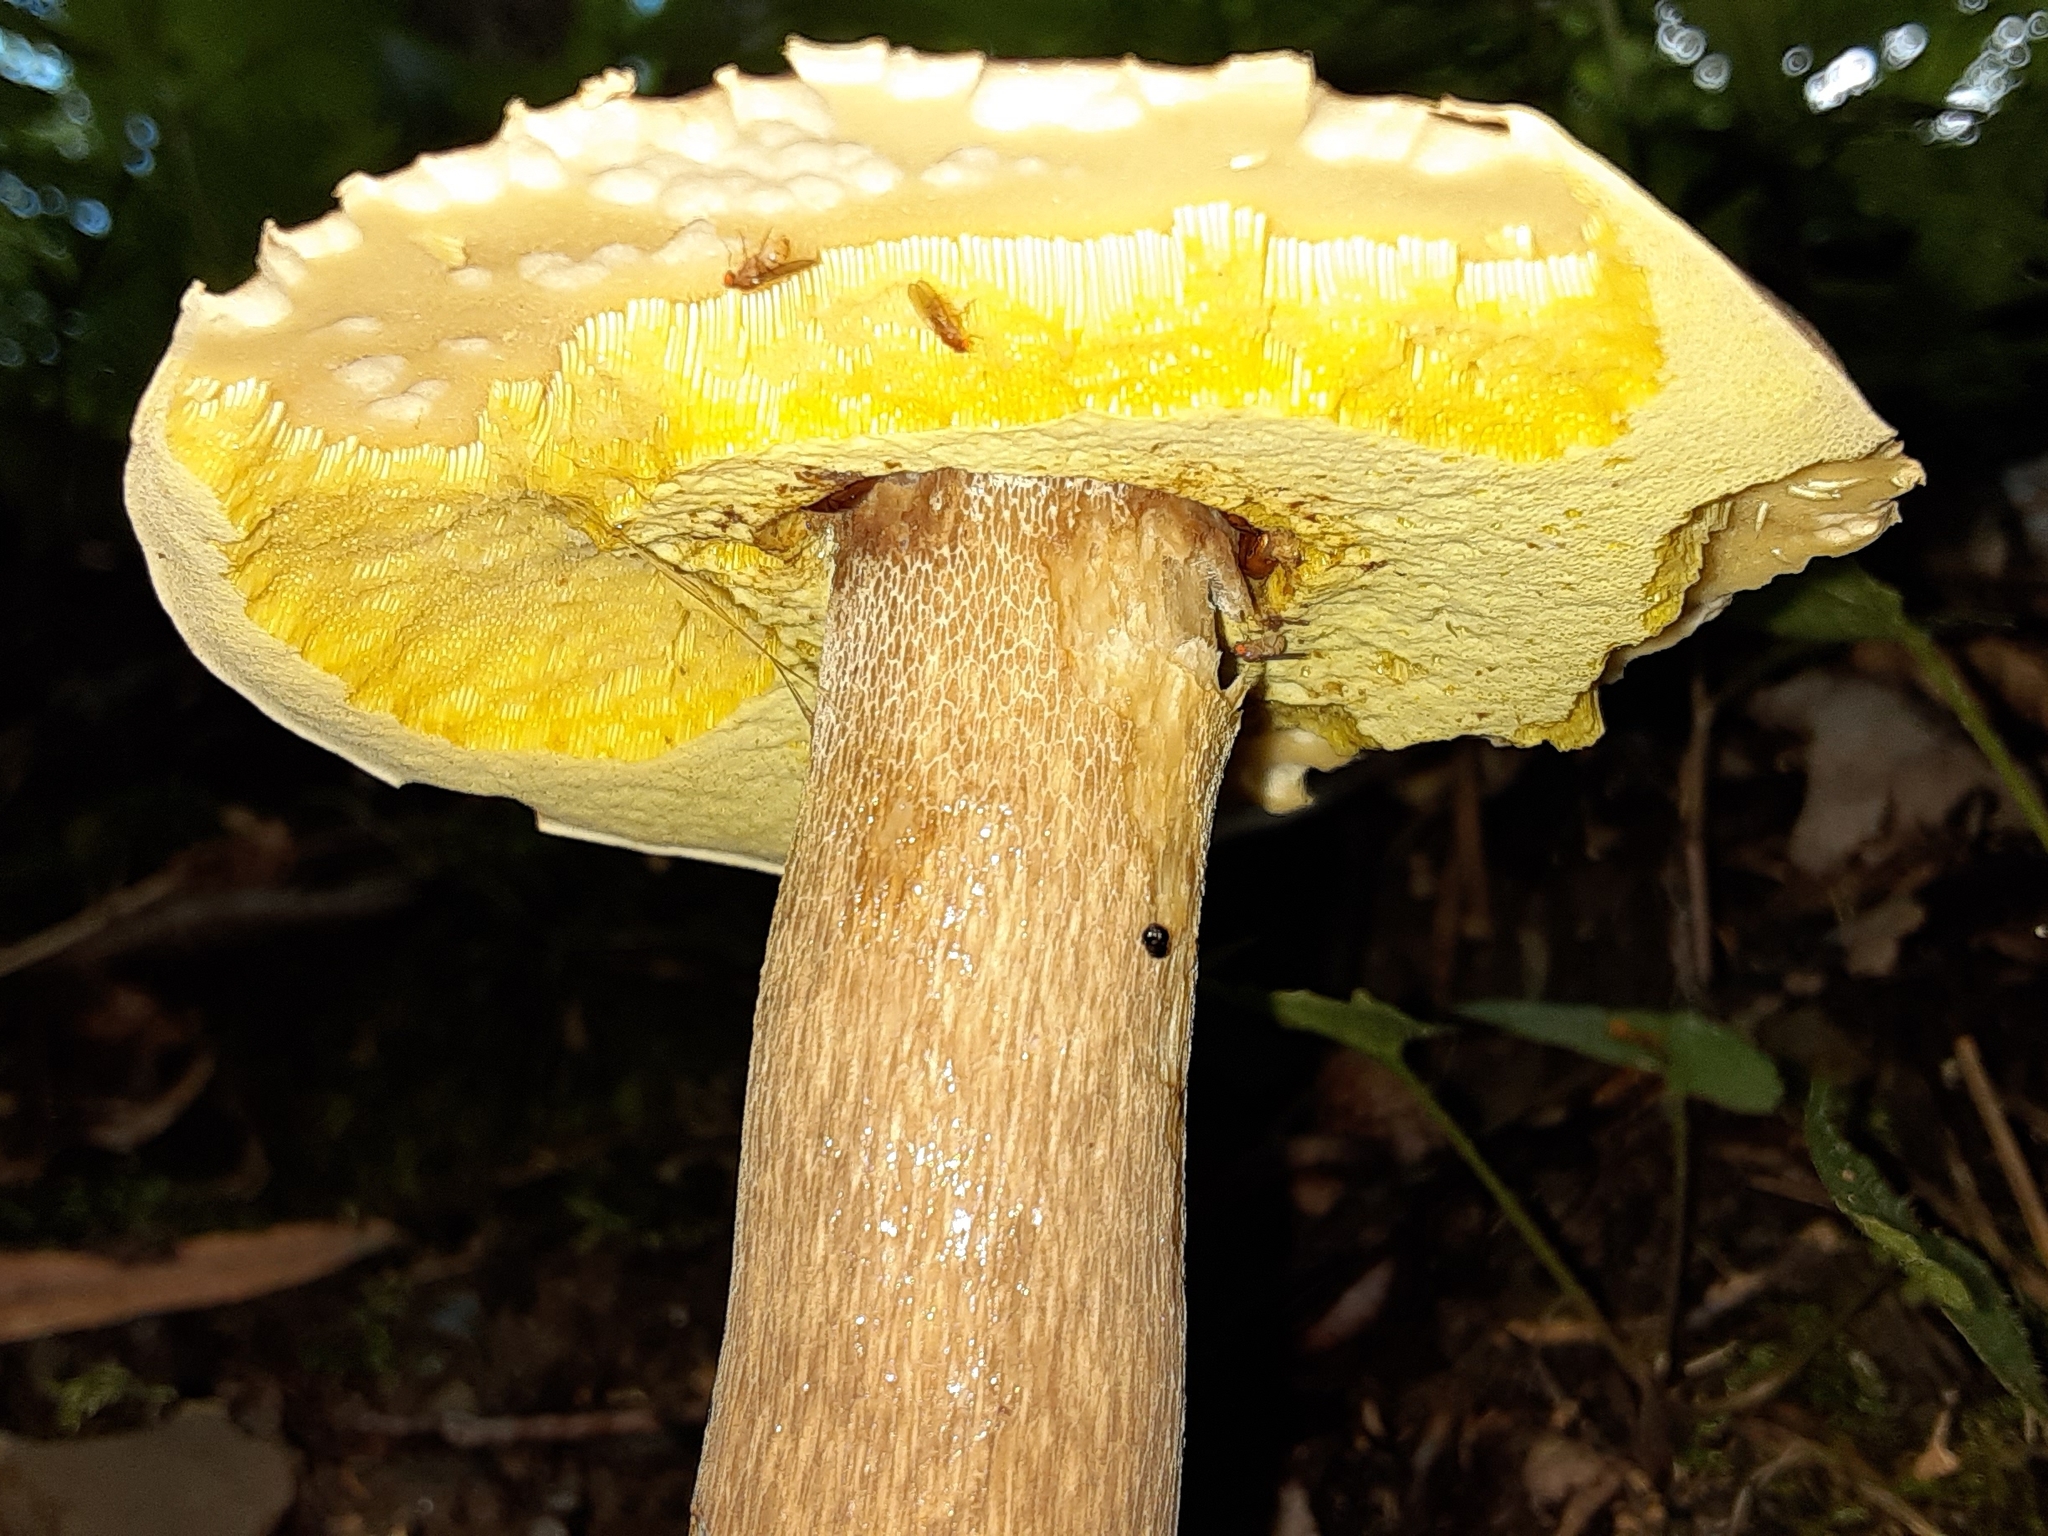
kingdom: Fungi
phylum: Basidiomycota
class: Agaricomycetes
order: Boletales
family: Boletaceae
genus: Boletus
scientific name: Boletus variipes
